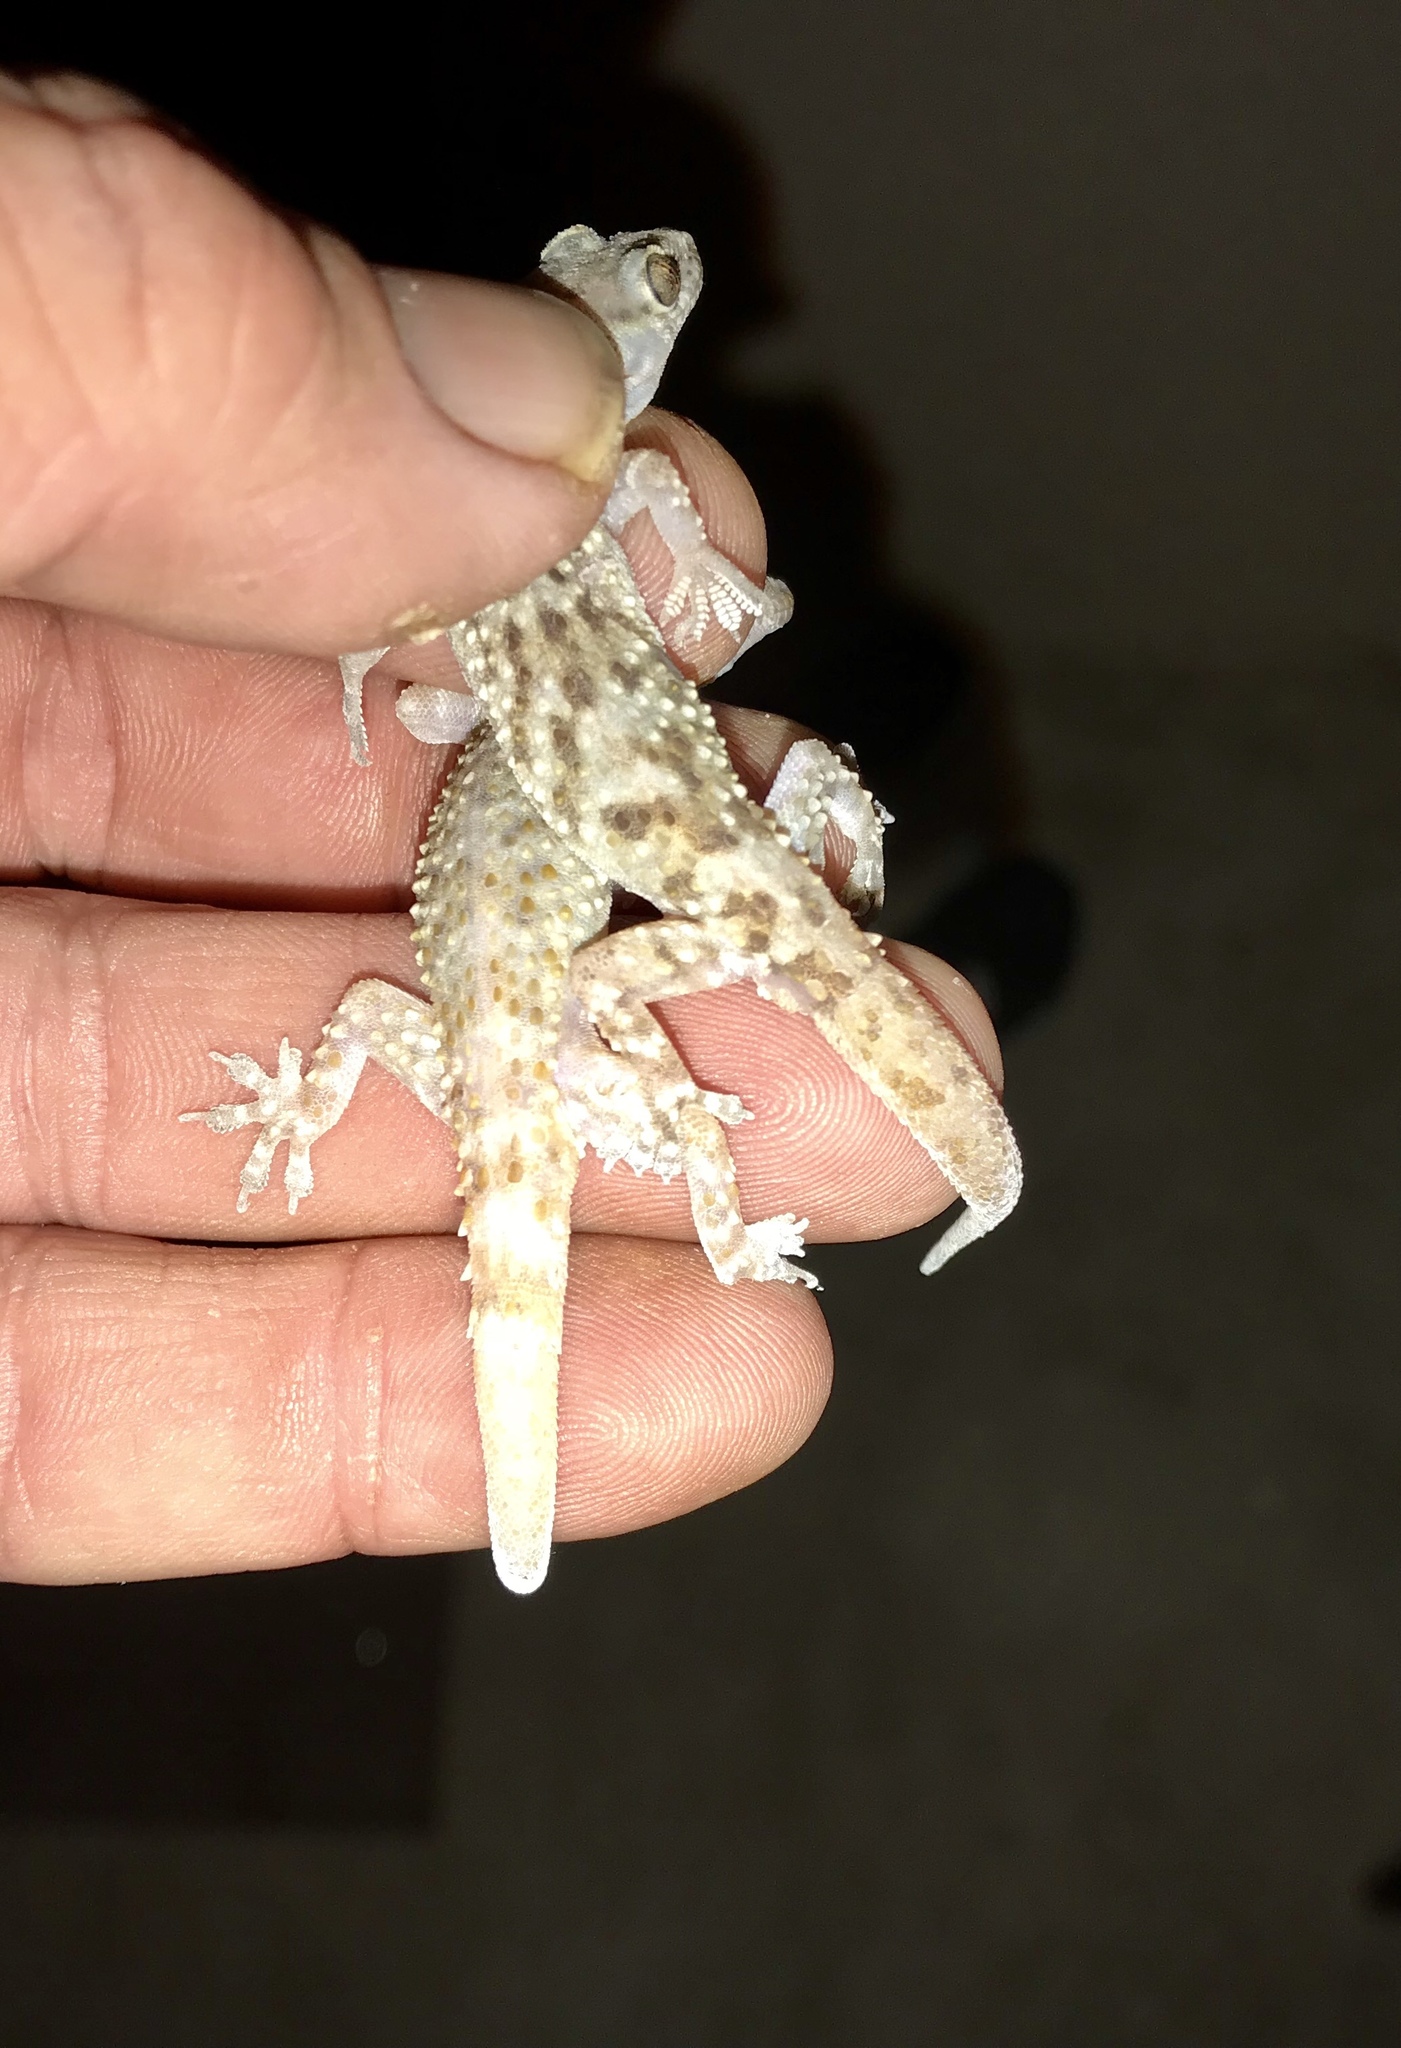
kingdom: Animalia
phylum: Chordata
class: Squamata
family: Gekkonidae
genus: Hemidactylus
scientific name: Hemidactylus turcicus
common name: Turkish gecko
